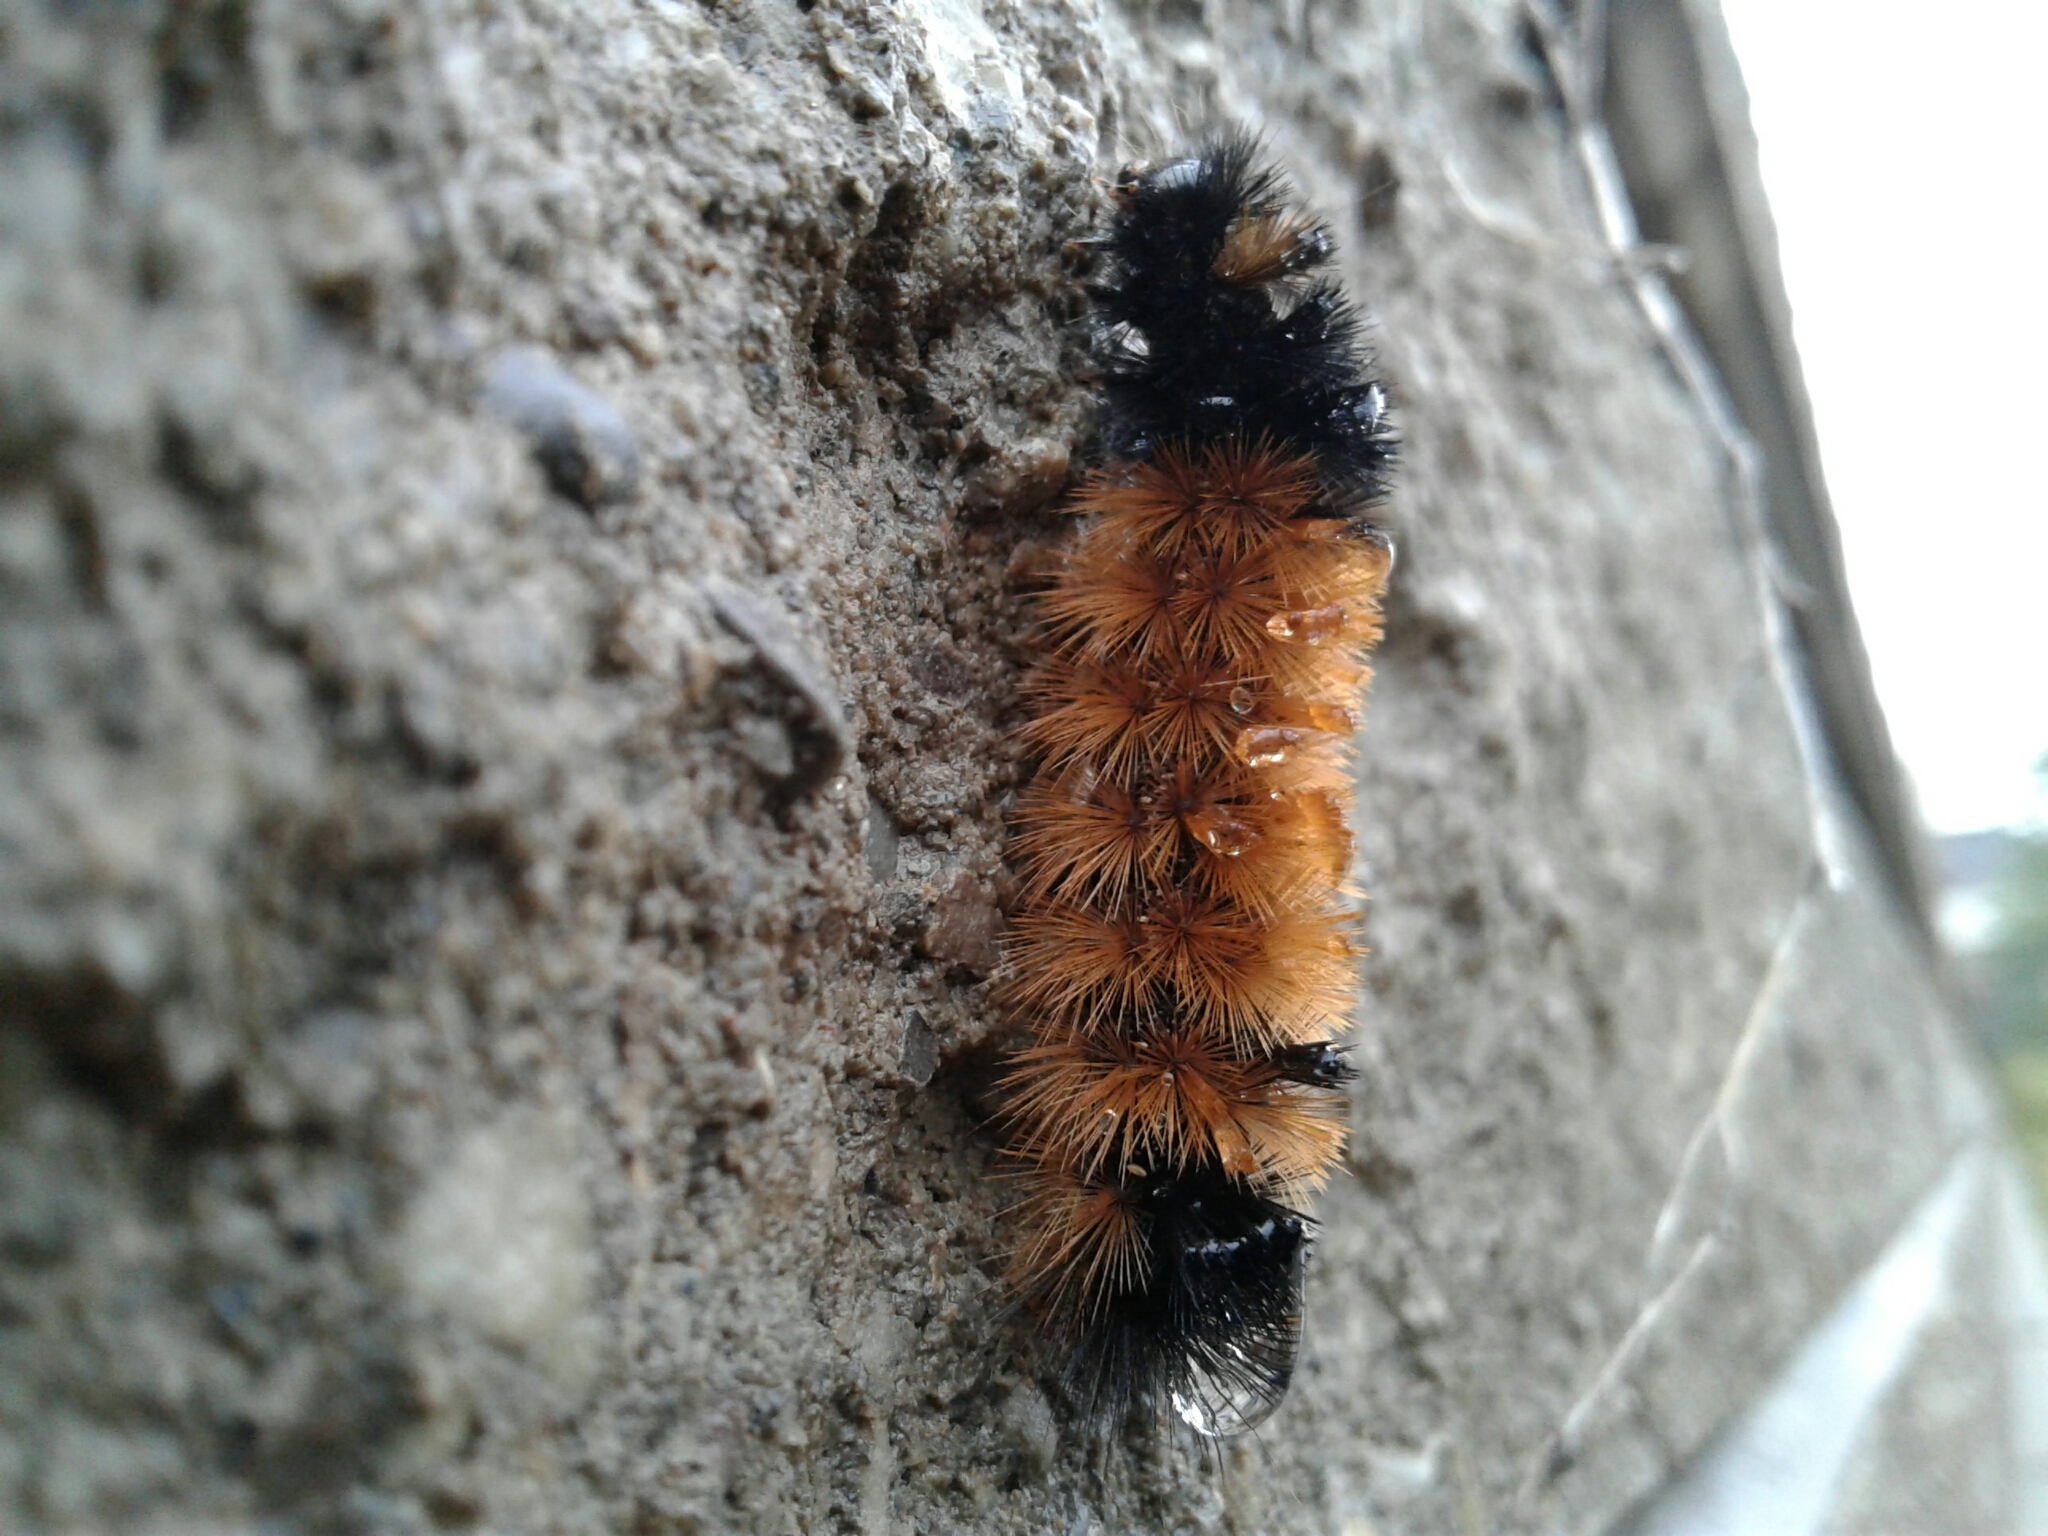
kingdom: Animalia
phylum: Arthropoda
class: Insecta
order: Lepidoptera
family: Erebidae
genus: Pyrrharctia
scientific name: Pyrrharctia isabella
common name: Isabella tiger moth
